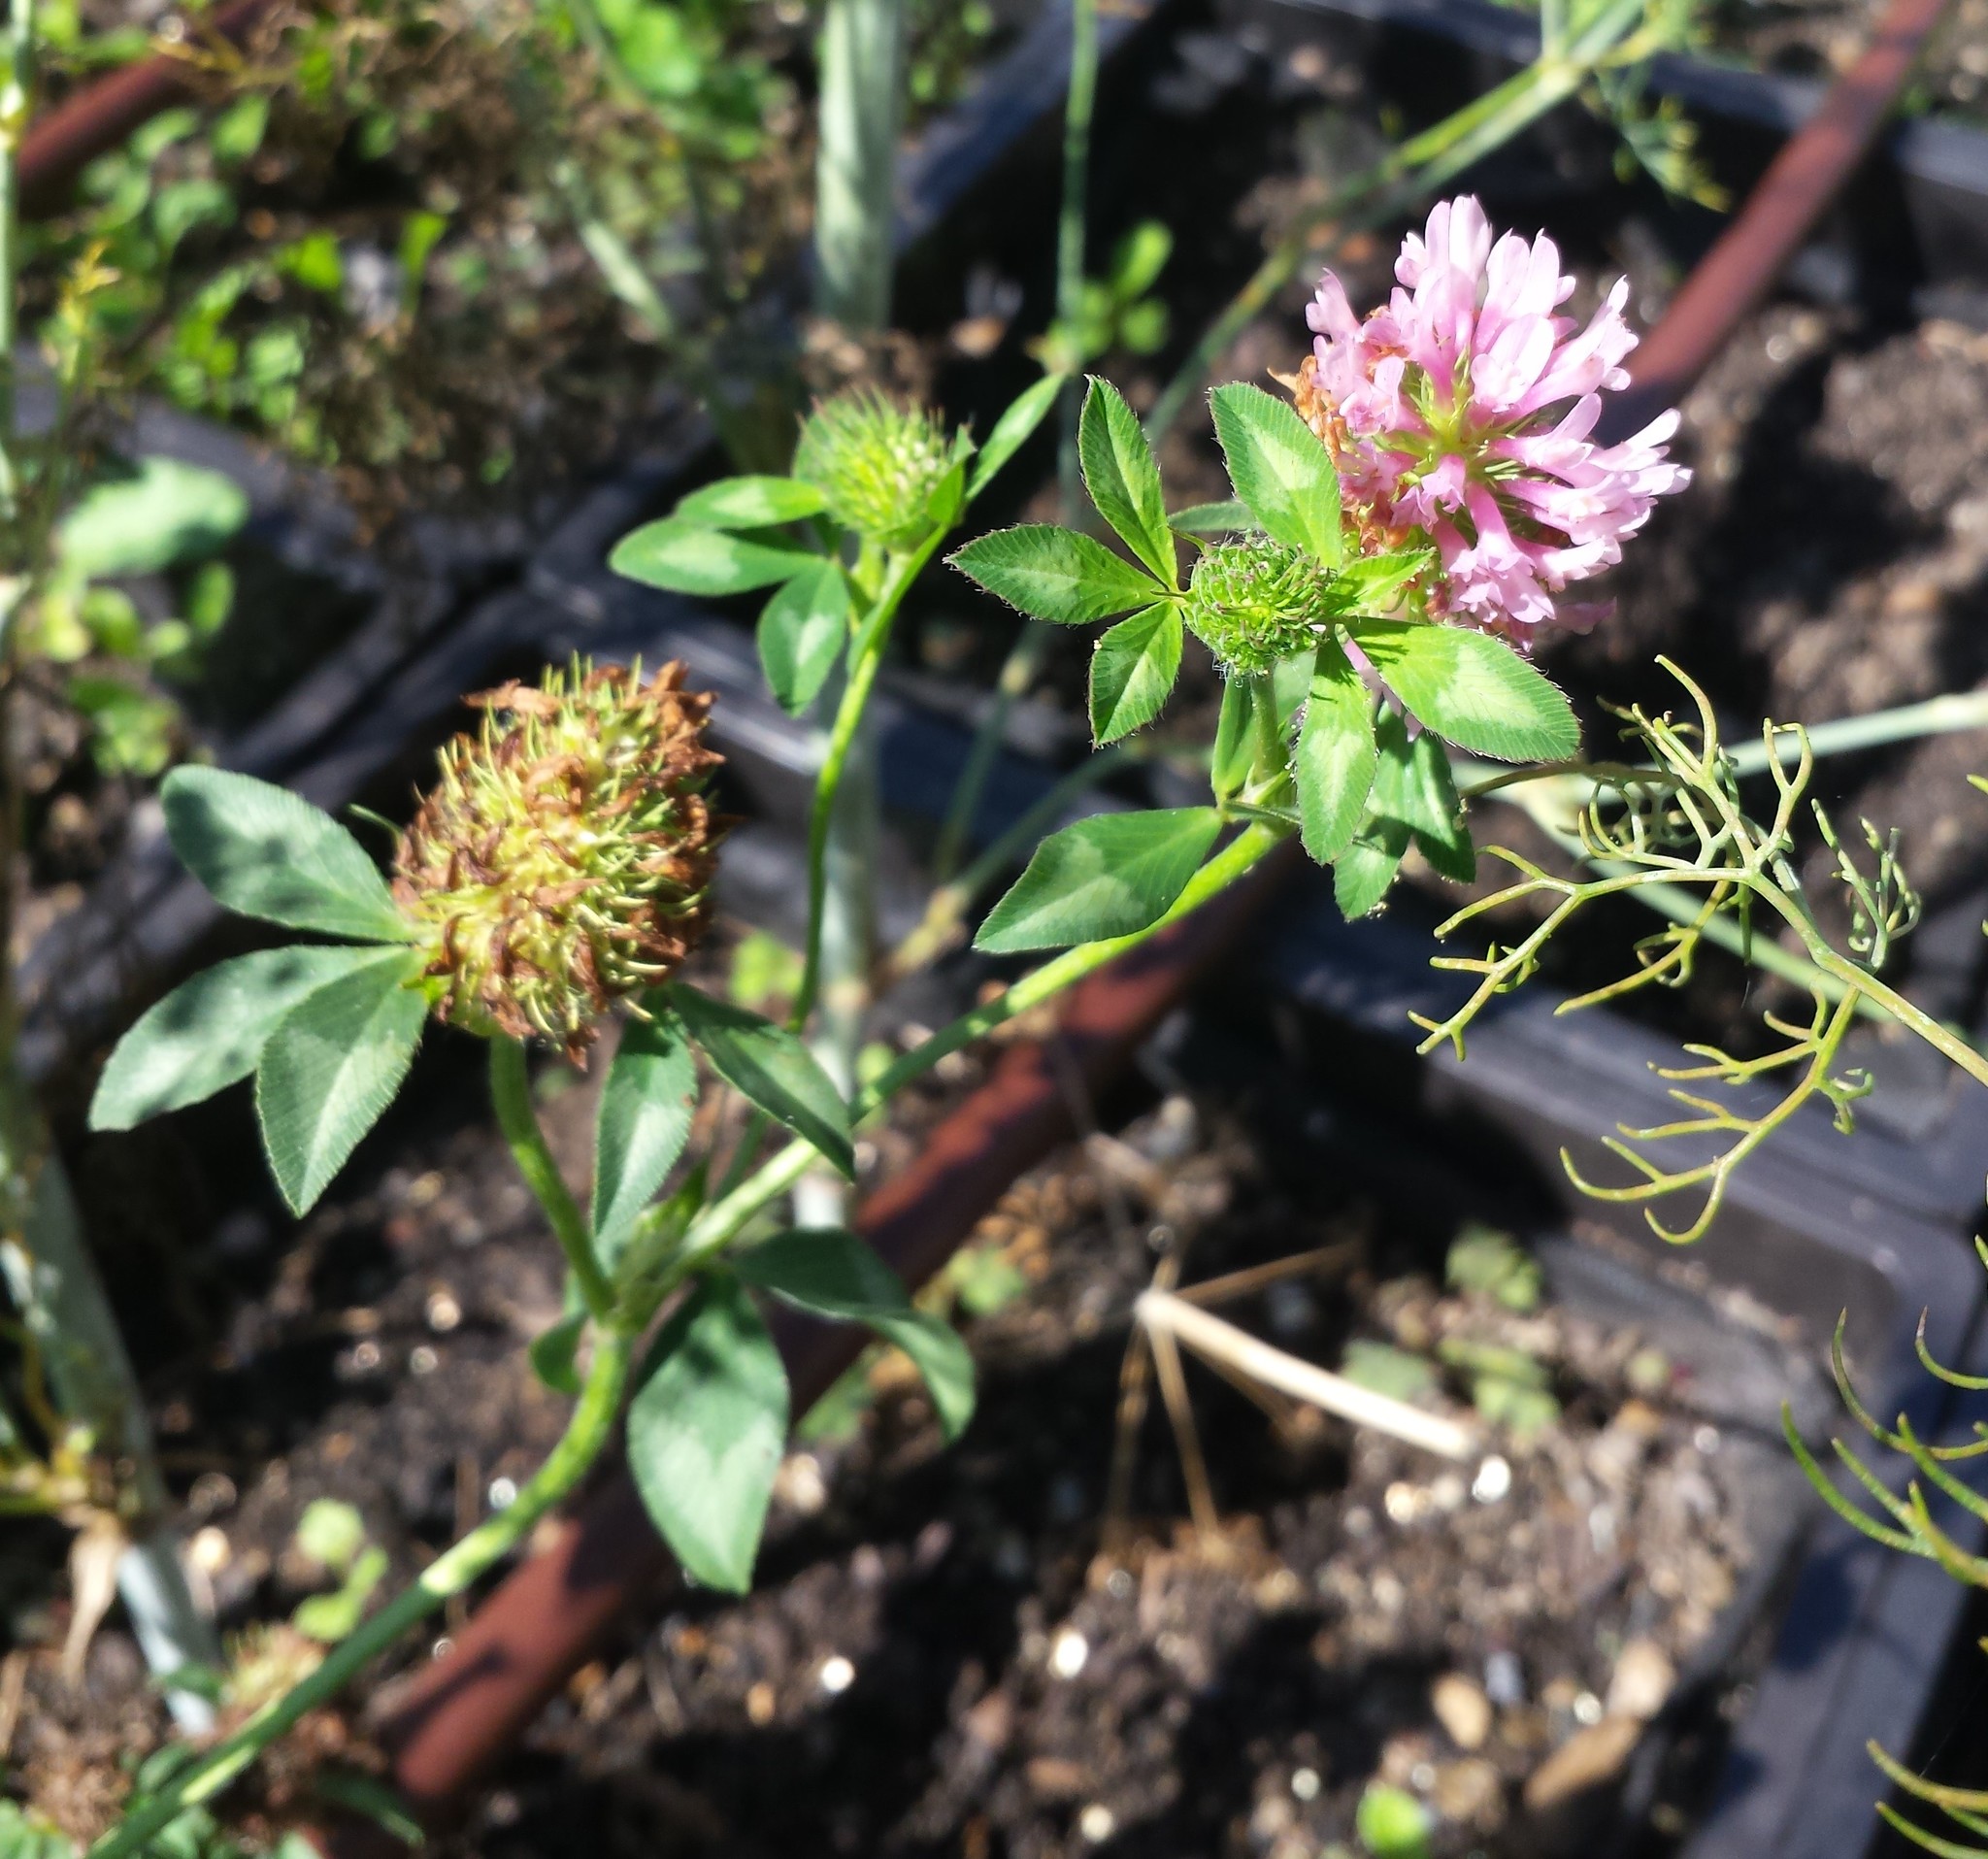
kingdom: Plantae
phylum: Tracheophyta
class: Magnoliopsida
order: Fabales
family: Fabaceae
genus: Trifolium
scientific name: Trifolium pratense
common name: Red clover
